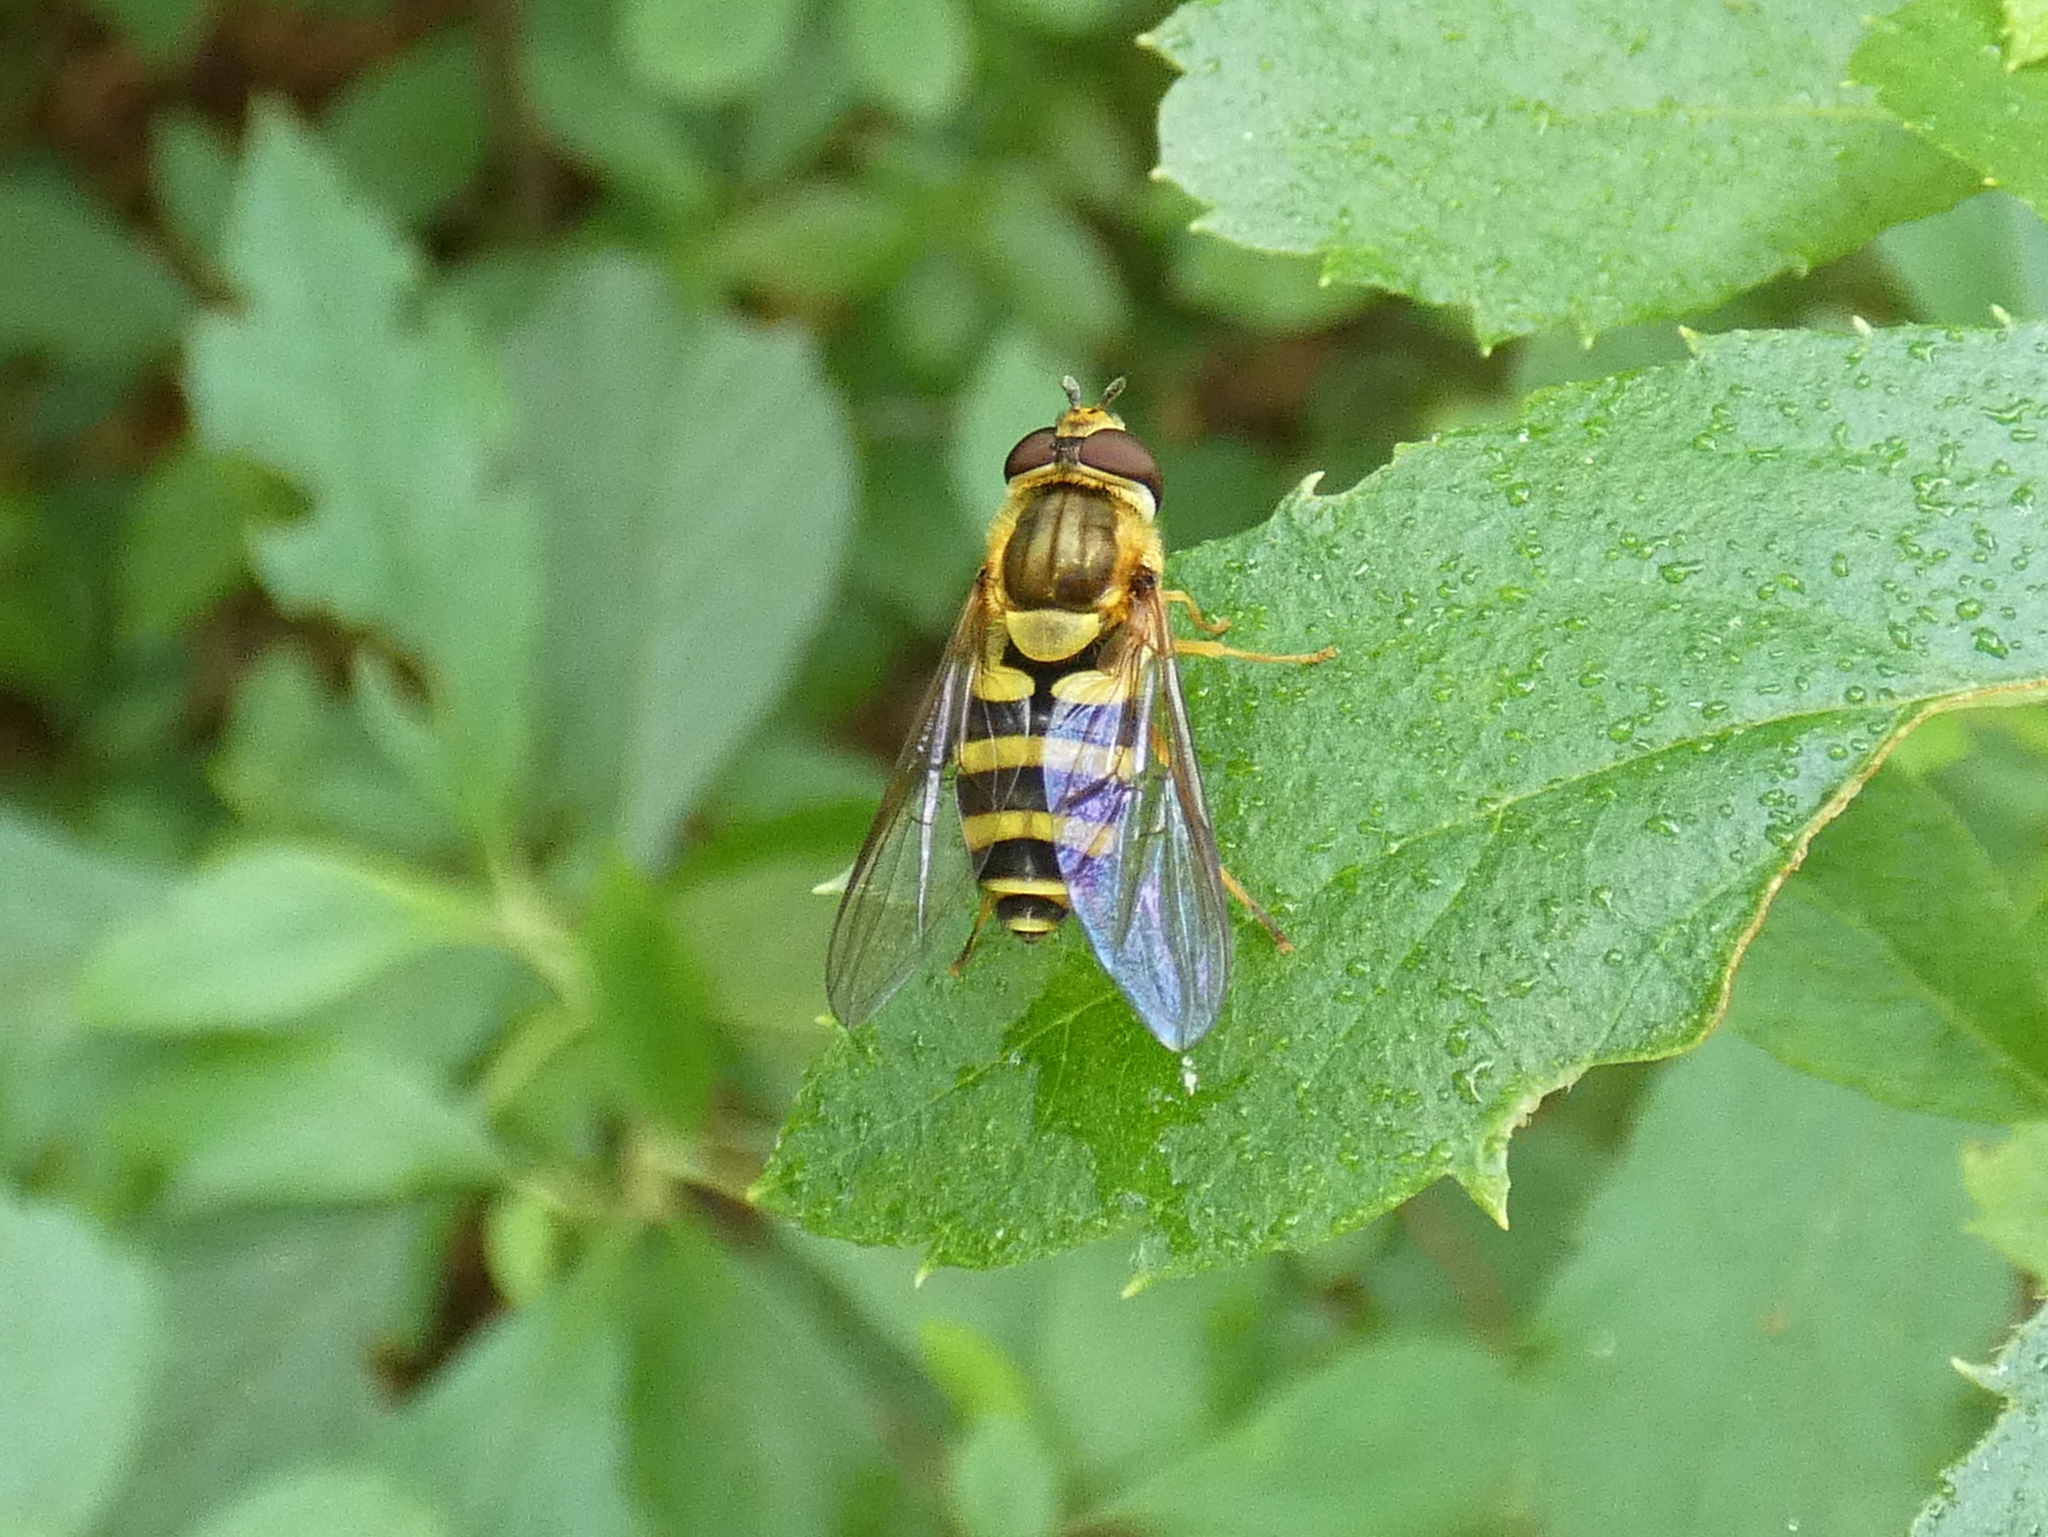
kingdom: Animalia
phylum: Arthropoda
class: Insecta
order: Diptera
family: Syrphidae
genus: Syrphus
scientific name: Syrphus knabi
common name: Eastern flower fly
